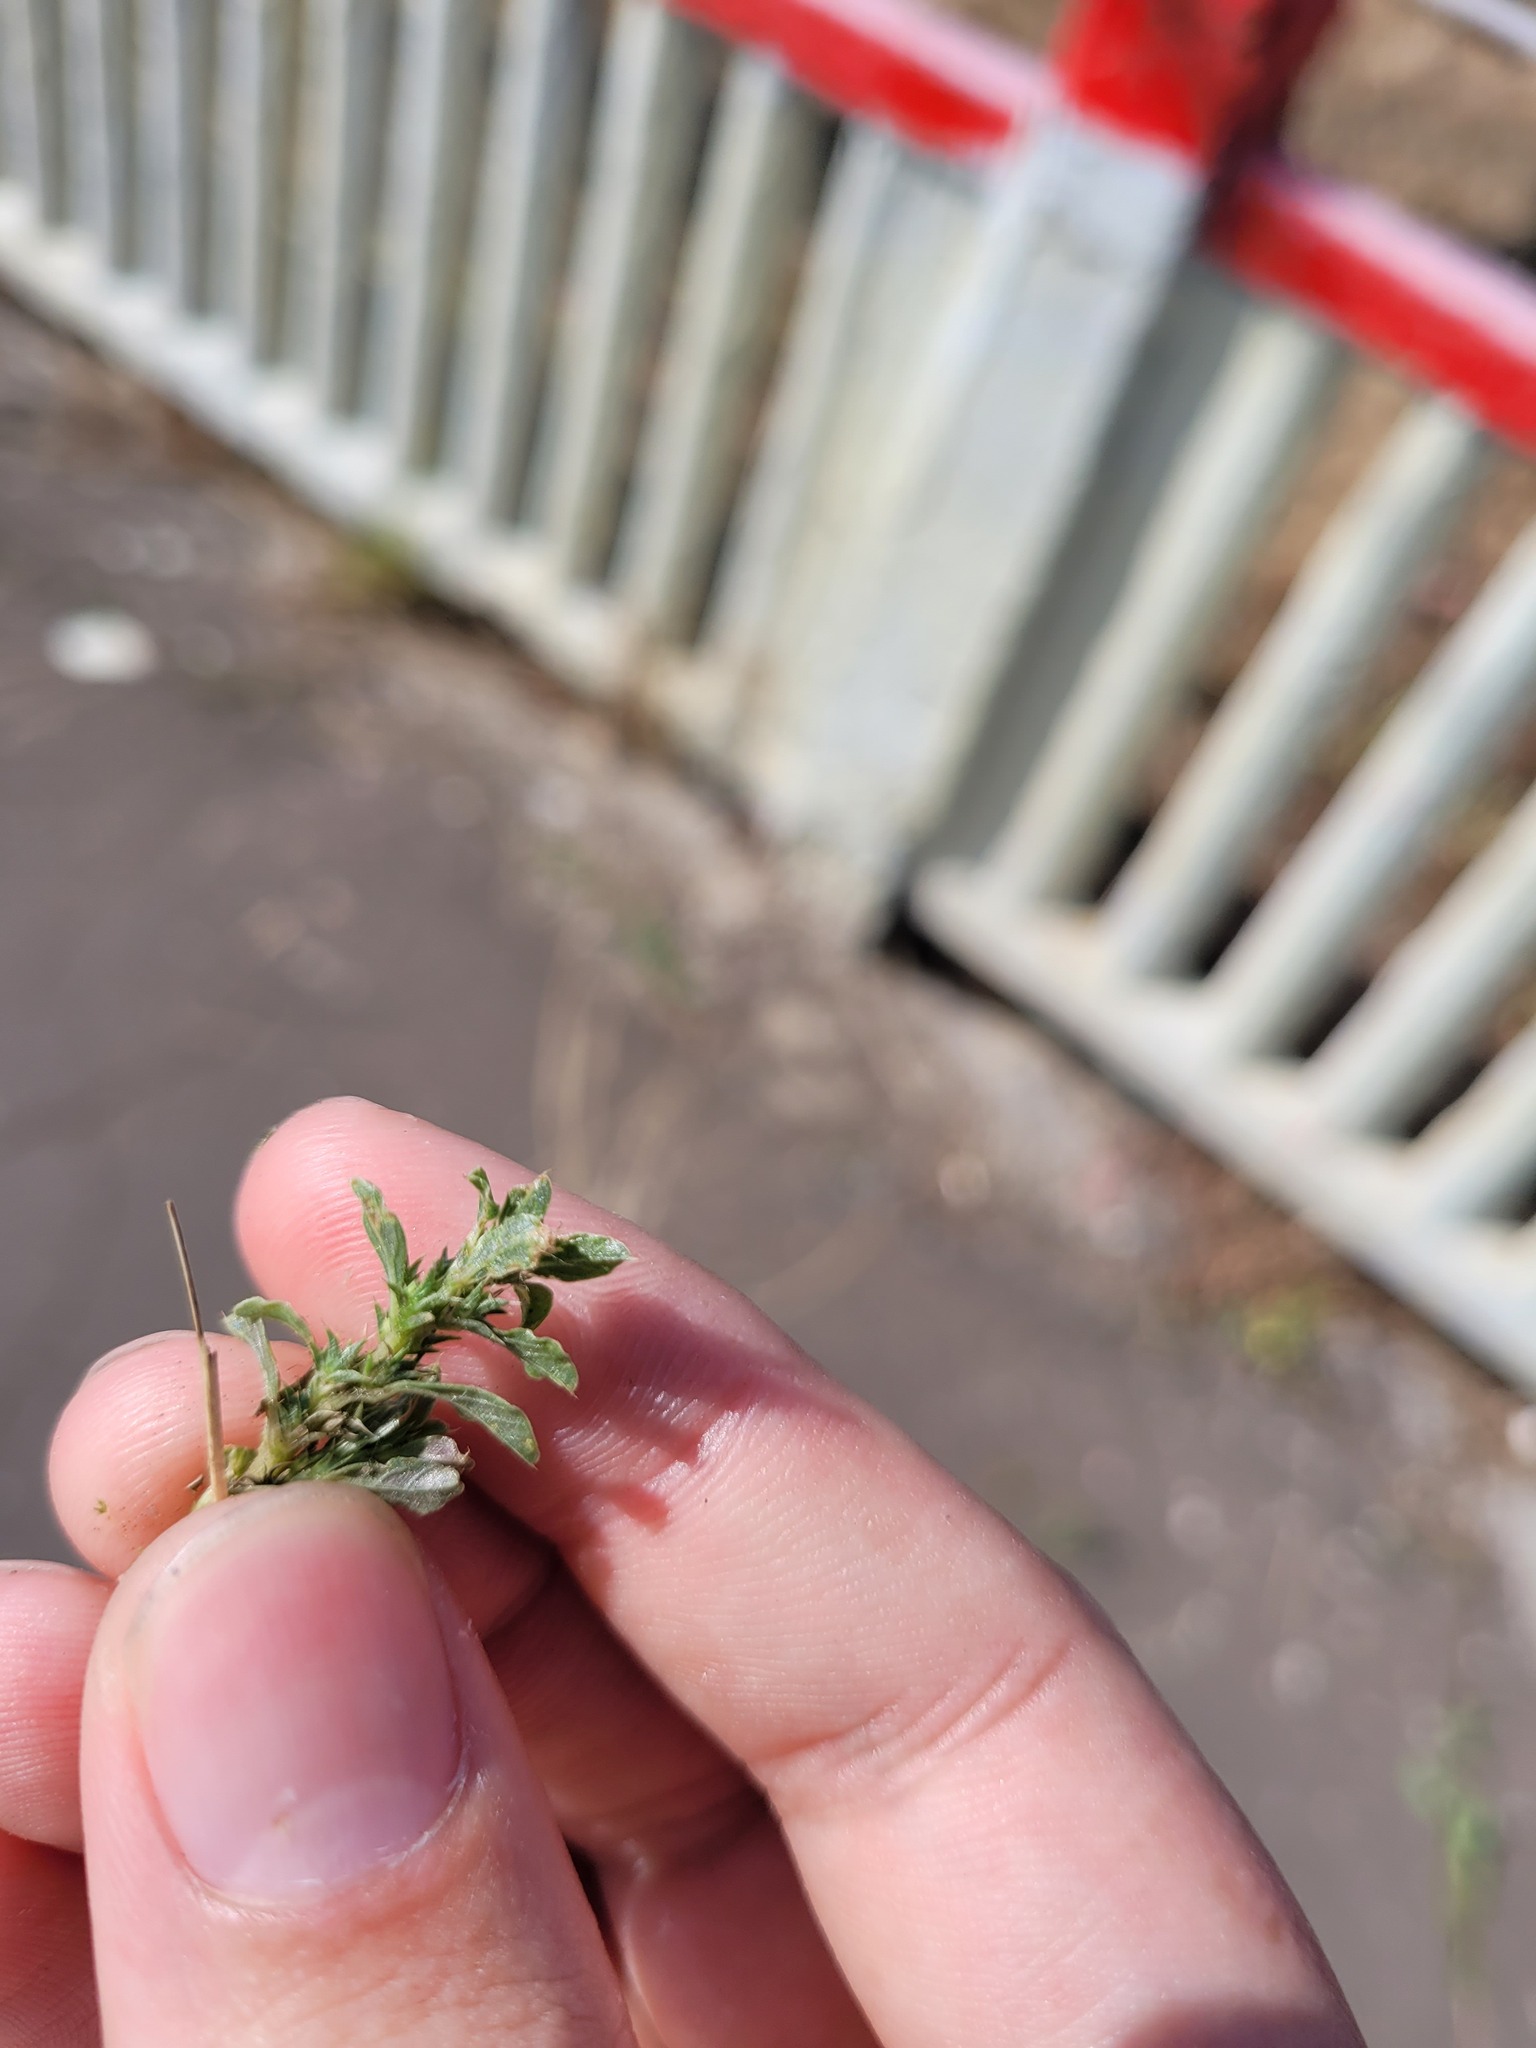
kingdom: Plantae
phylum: Tracheophyta
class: Magnoliopsida
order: Caryophyllales
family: Amaranthaceae
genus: Amaranthus
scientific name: Amaranthus albus
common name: White pigweed
